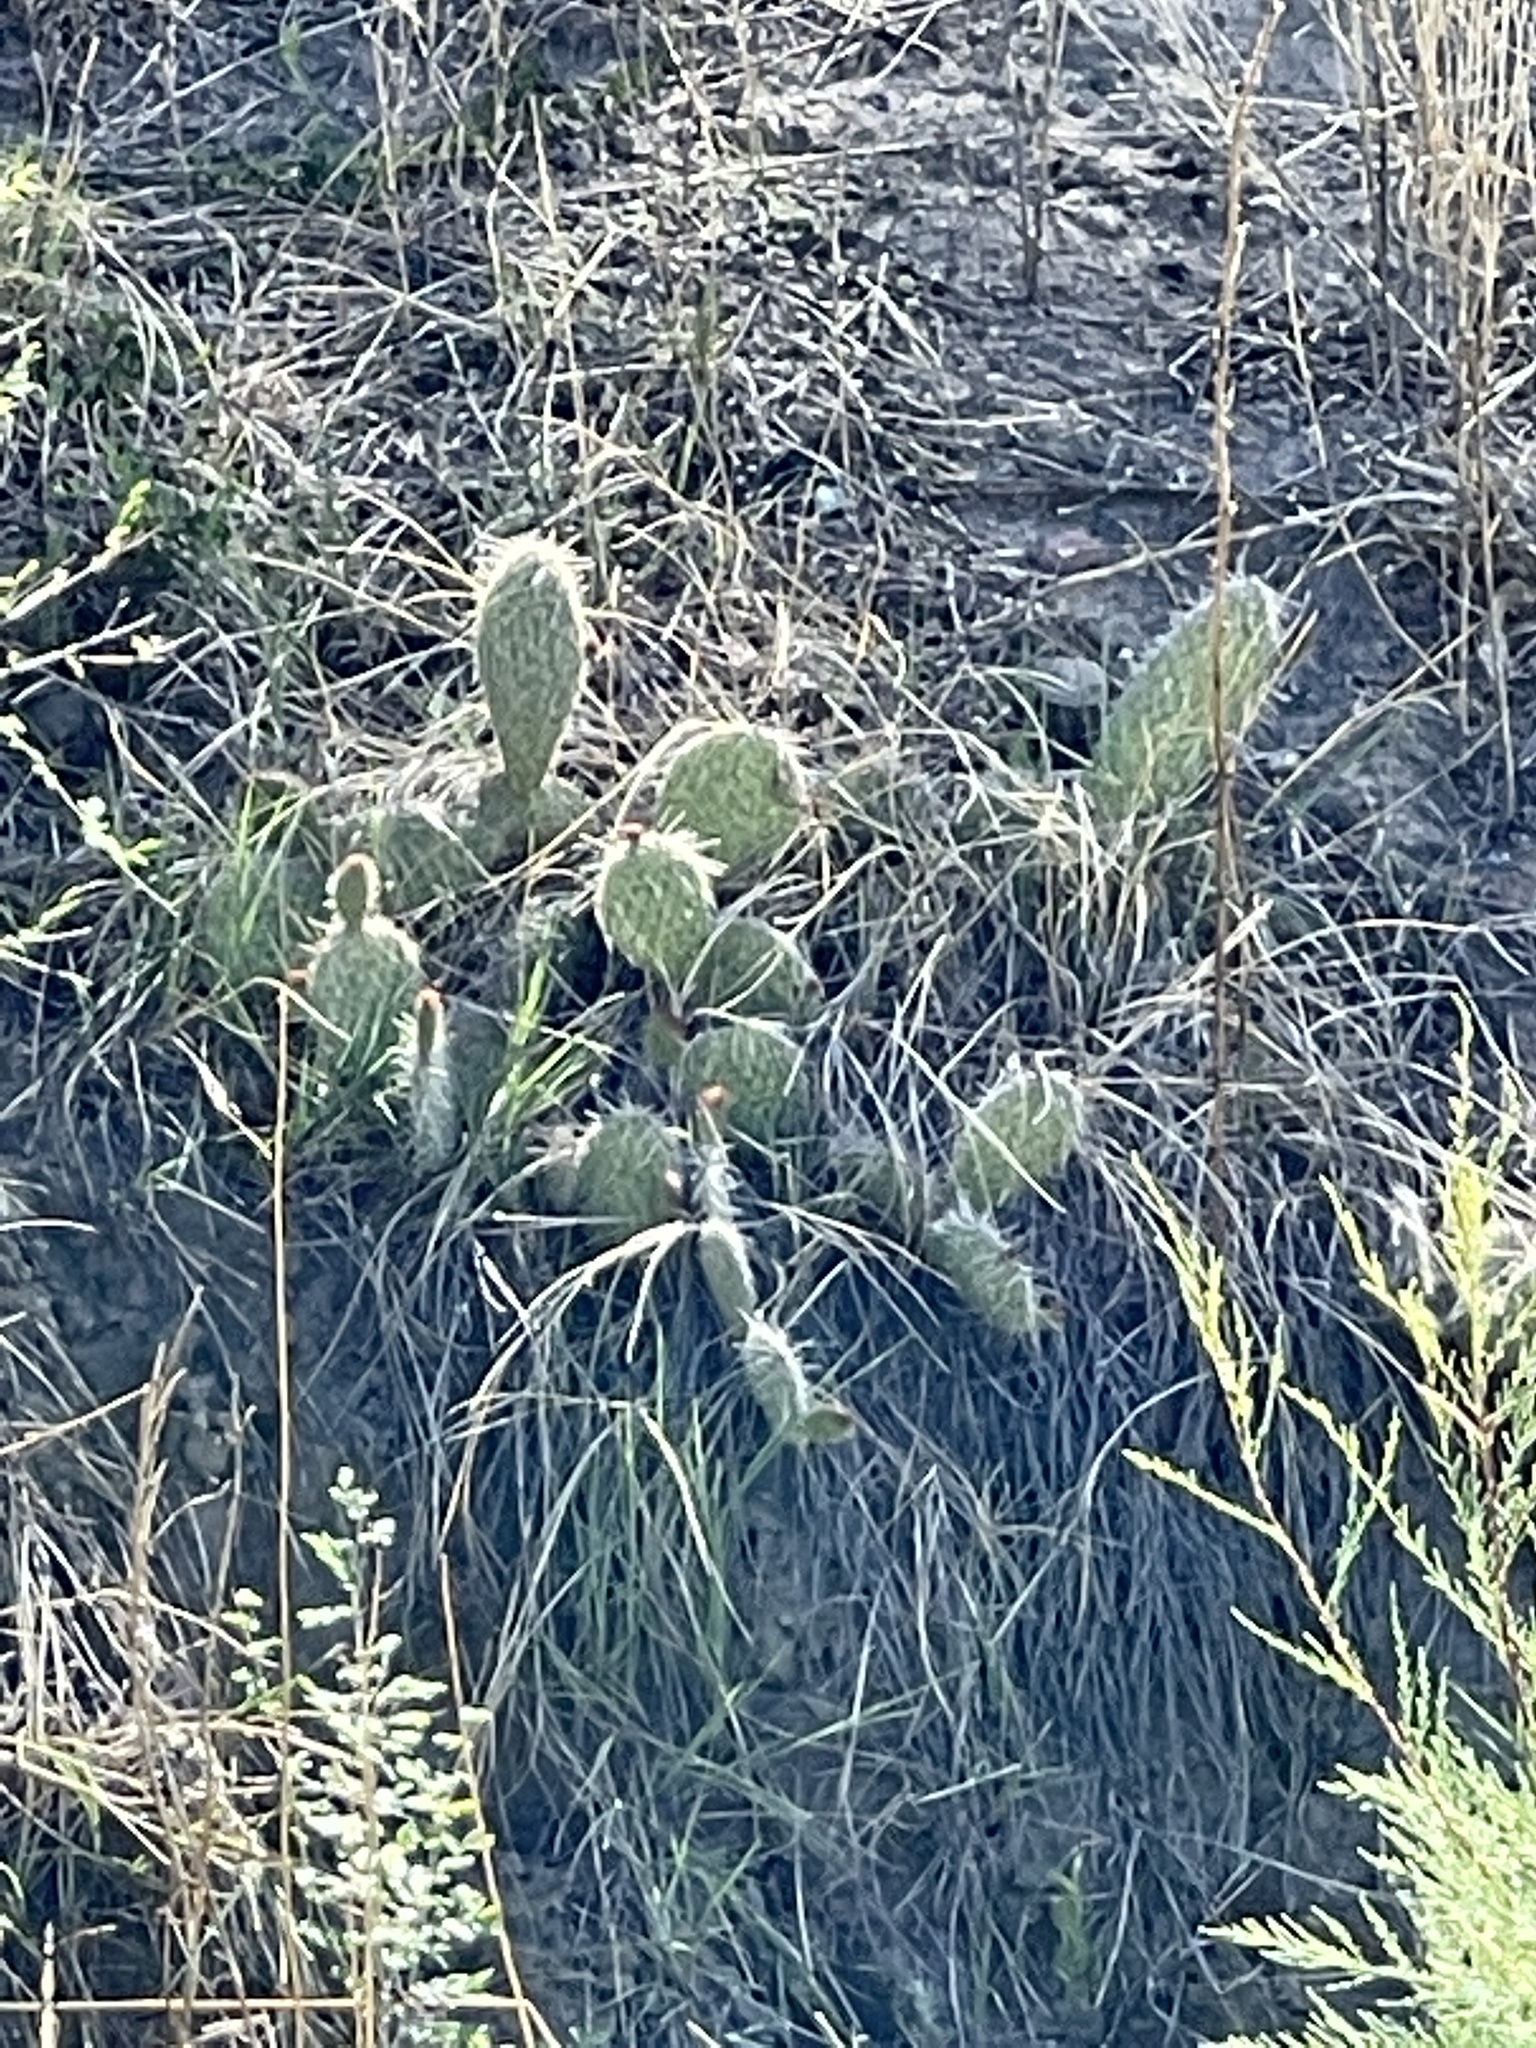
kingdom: Plantae
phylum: Tracheophyta
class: Magnoliopsida
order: Caryophyllales
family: Cactaceae
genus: Opuntia
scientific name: Opuntia polyacantha
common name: Plains prickly-pear
